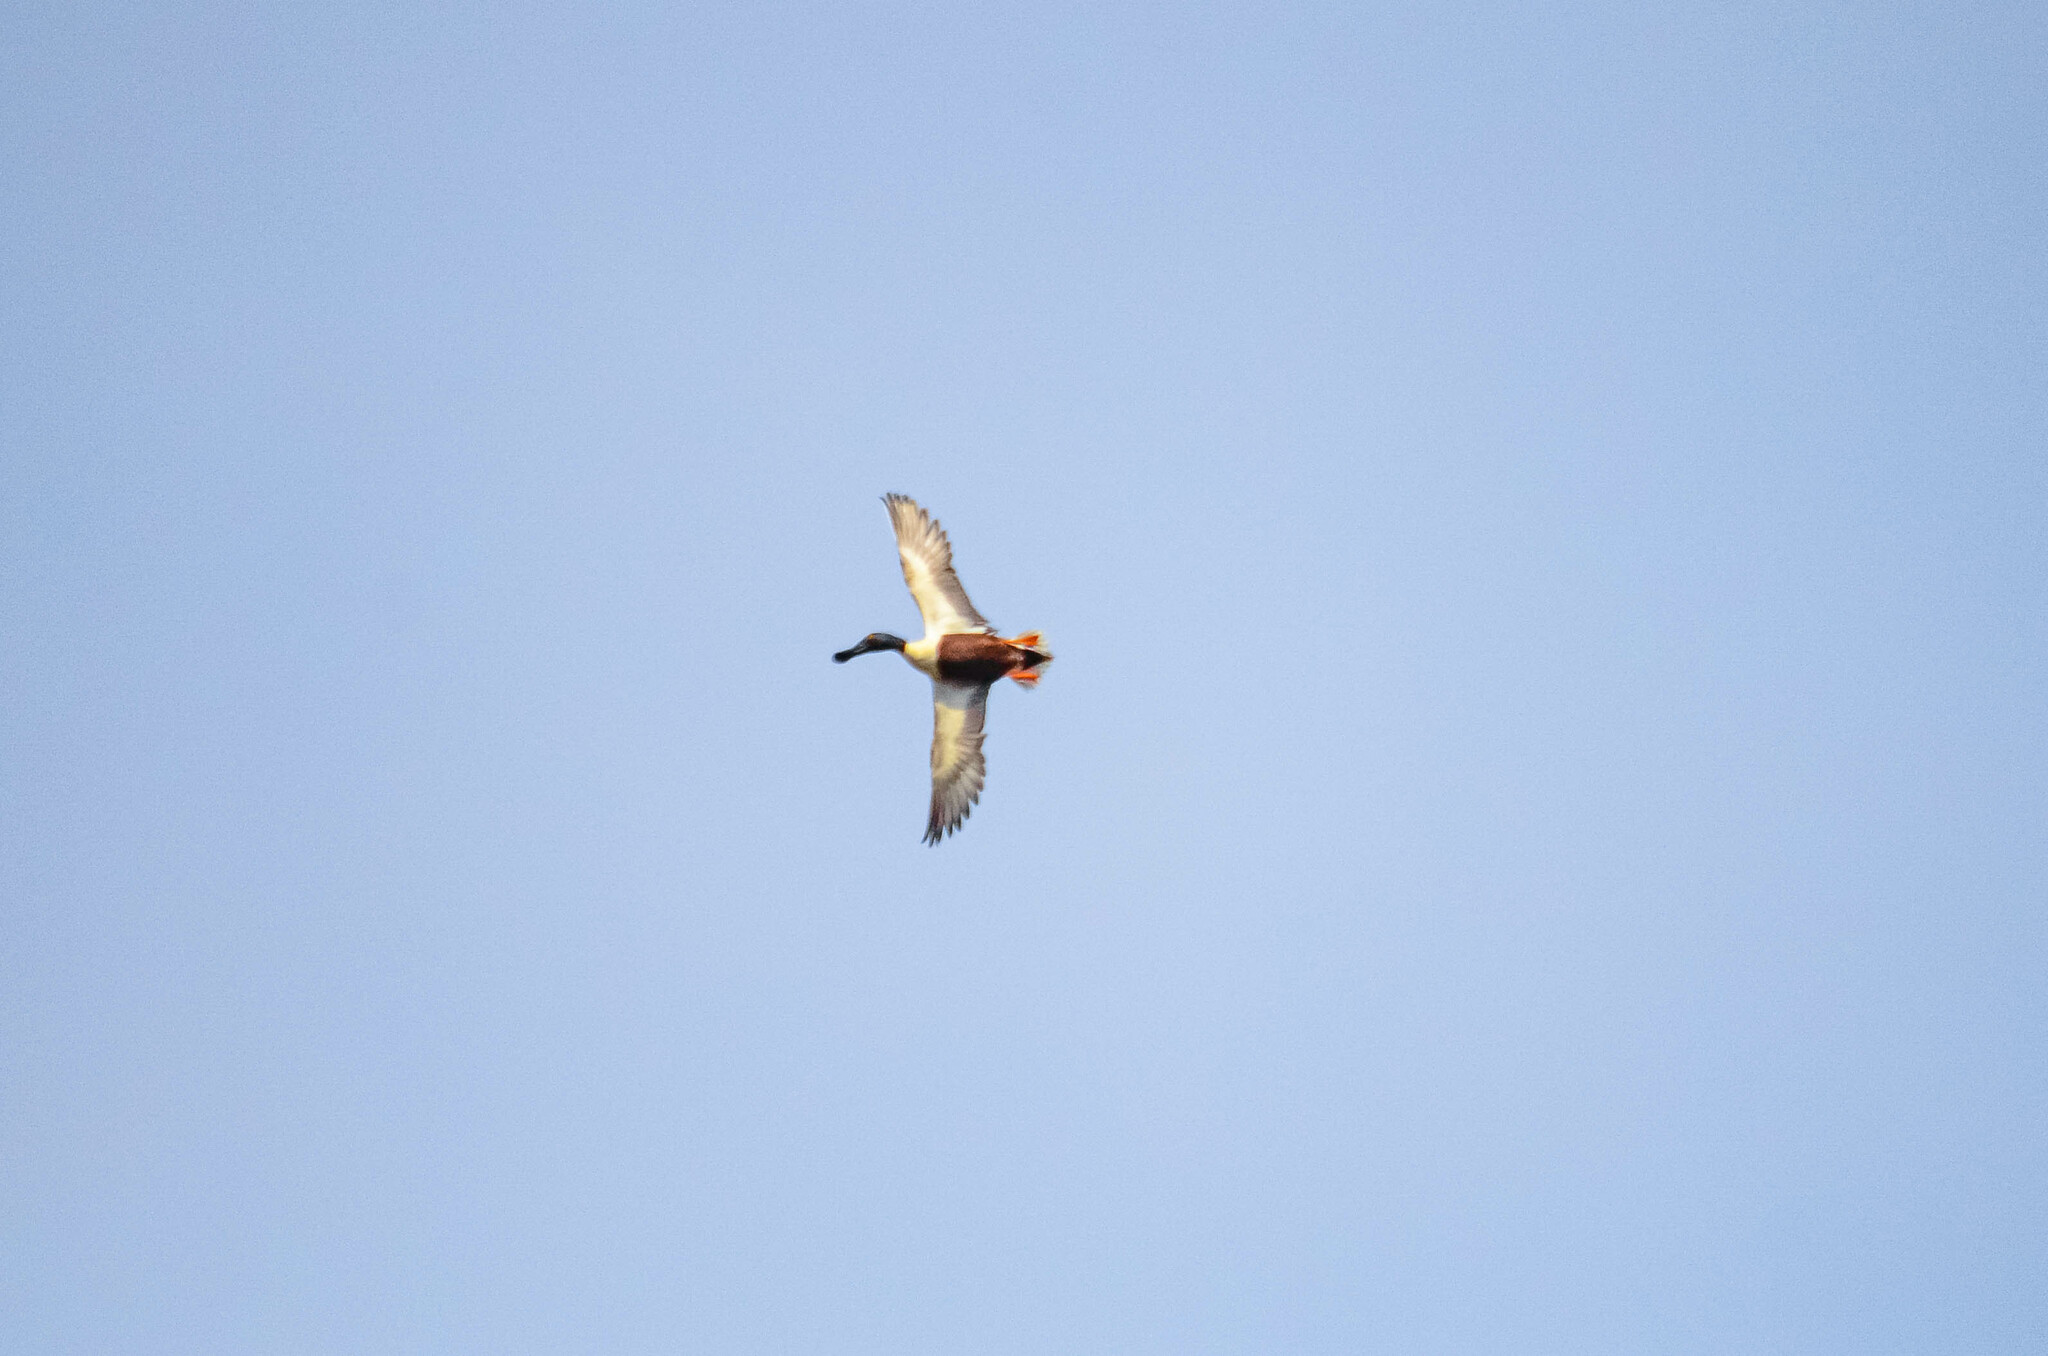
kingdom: Animalia
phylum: Chordata
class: Aves
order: Anseriformes
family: Anatidae
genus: Spatula
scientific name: Spatula clypeata
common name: Northern shoveler
